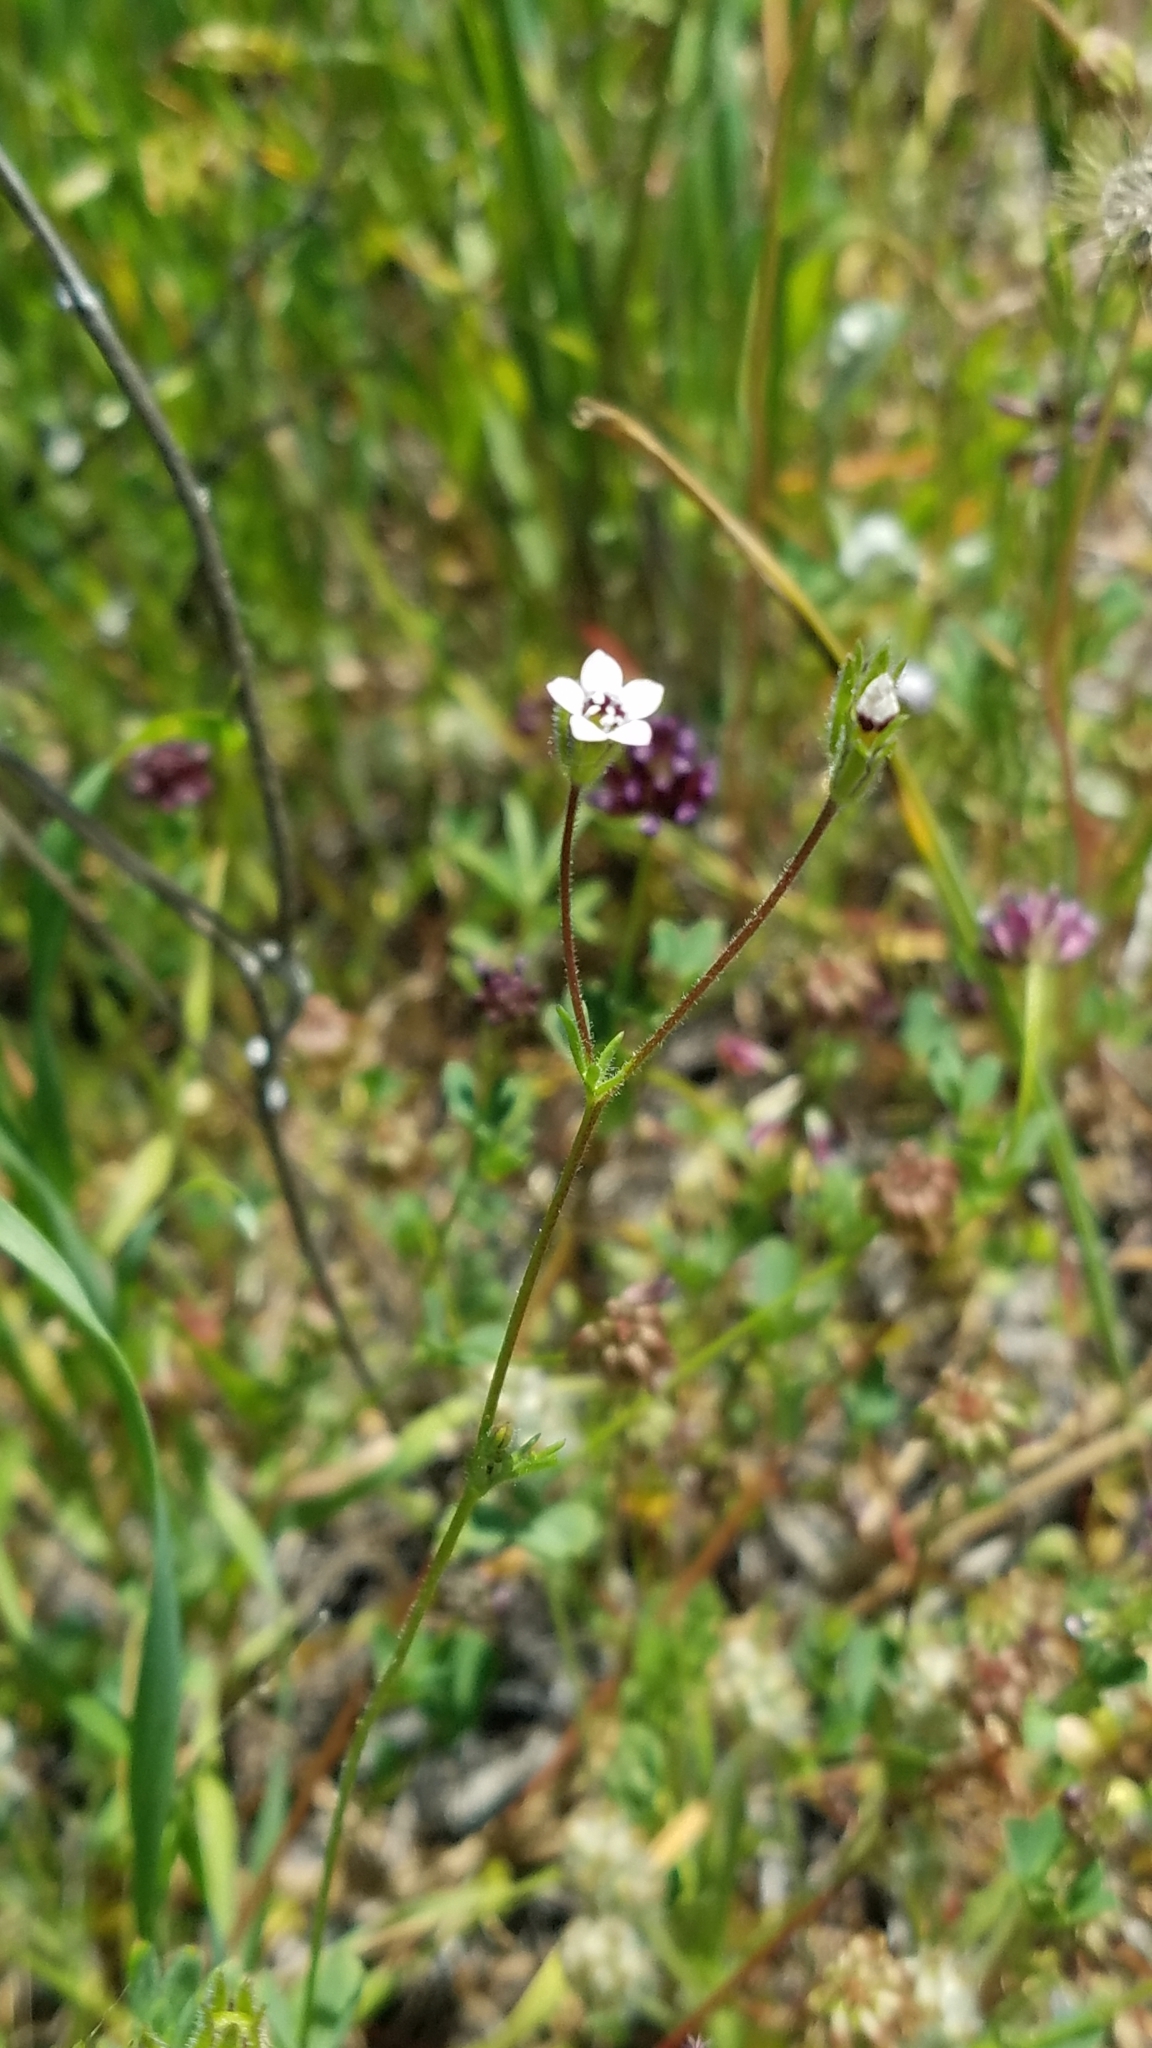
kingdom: Plantae
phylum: Tracheophyta
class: Magnoliopsida
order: Ericales
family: Polemoniaceae
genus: Gilia
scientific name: Gilia clivorum
